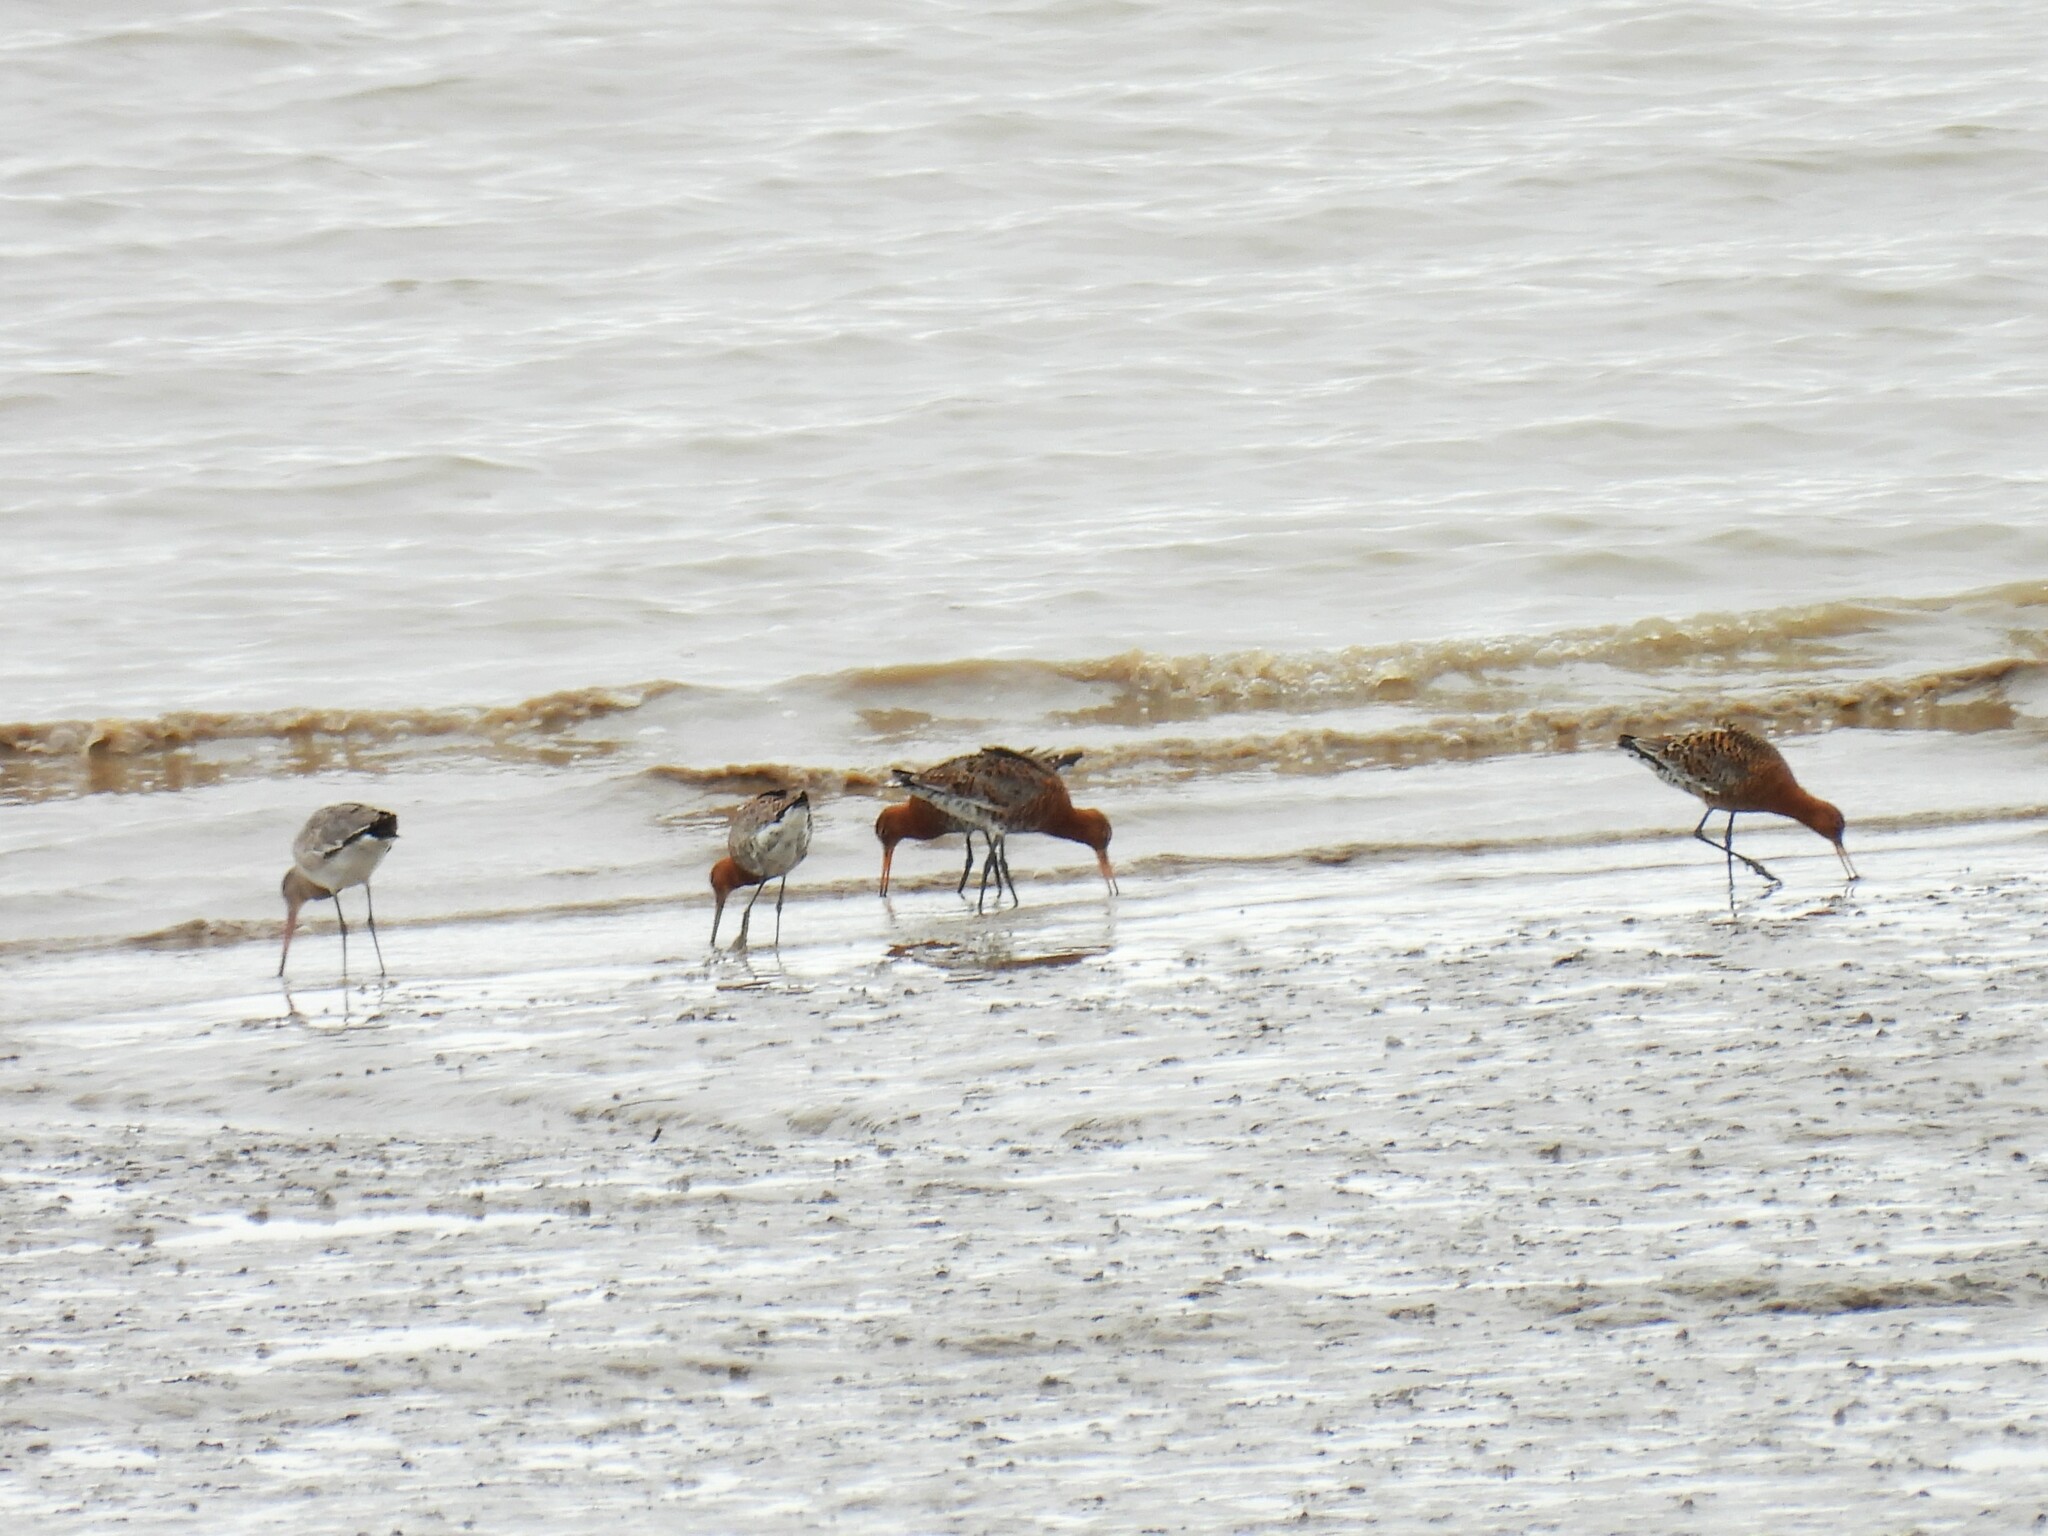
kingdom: Animalia
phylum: Chordata
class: Aves
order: Charadriiformes
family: Scolopacidae
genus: Limosa
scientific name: Limosa limosa
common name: Black-tailed godwit
